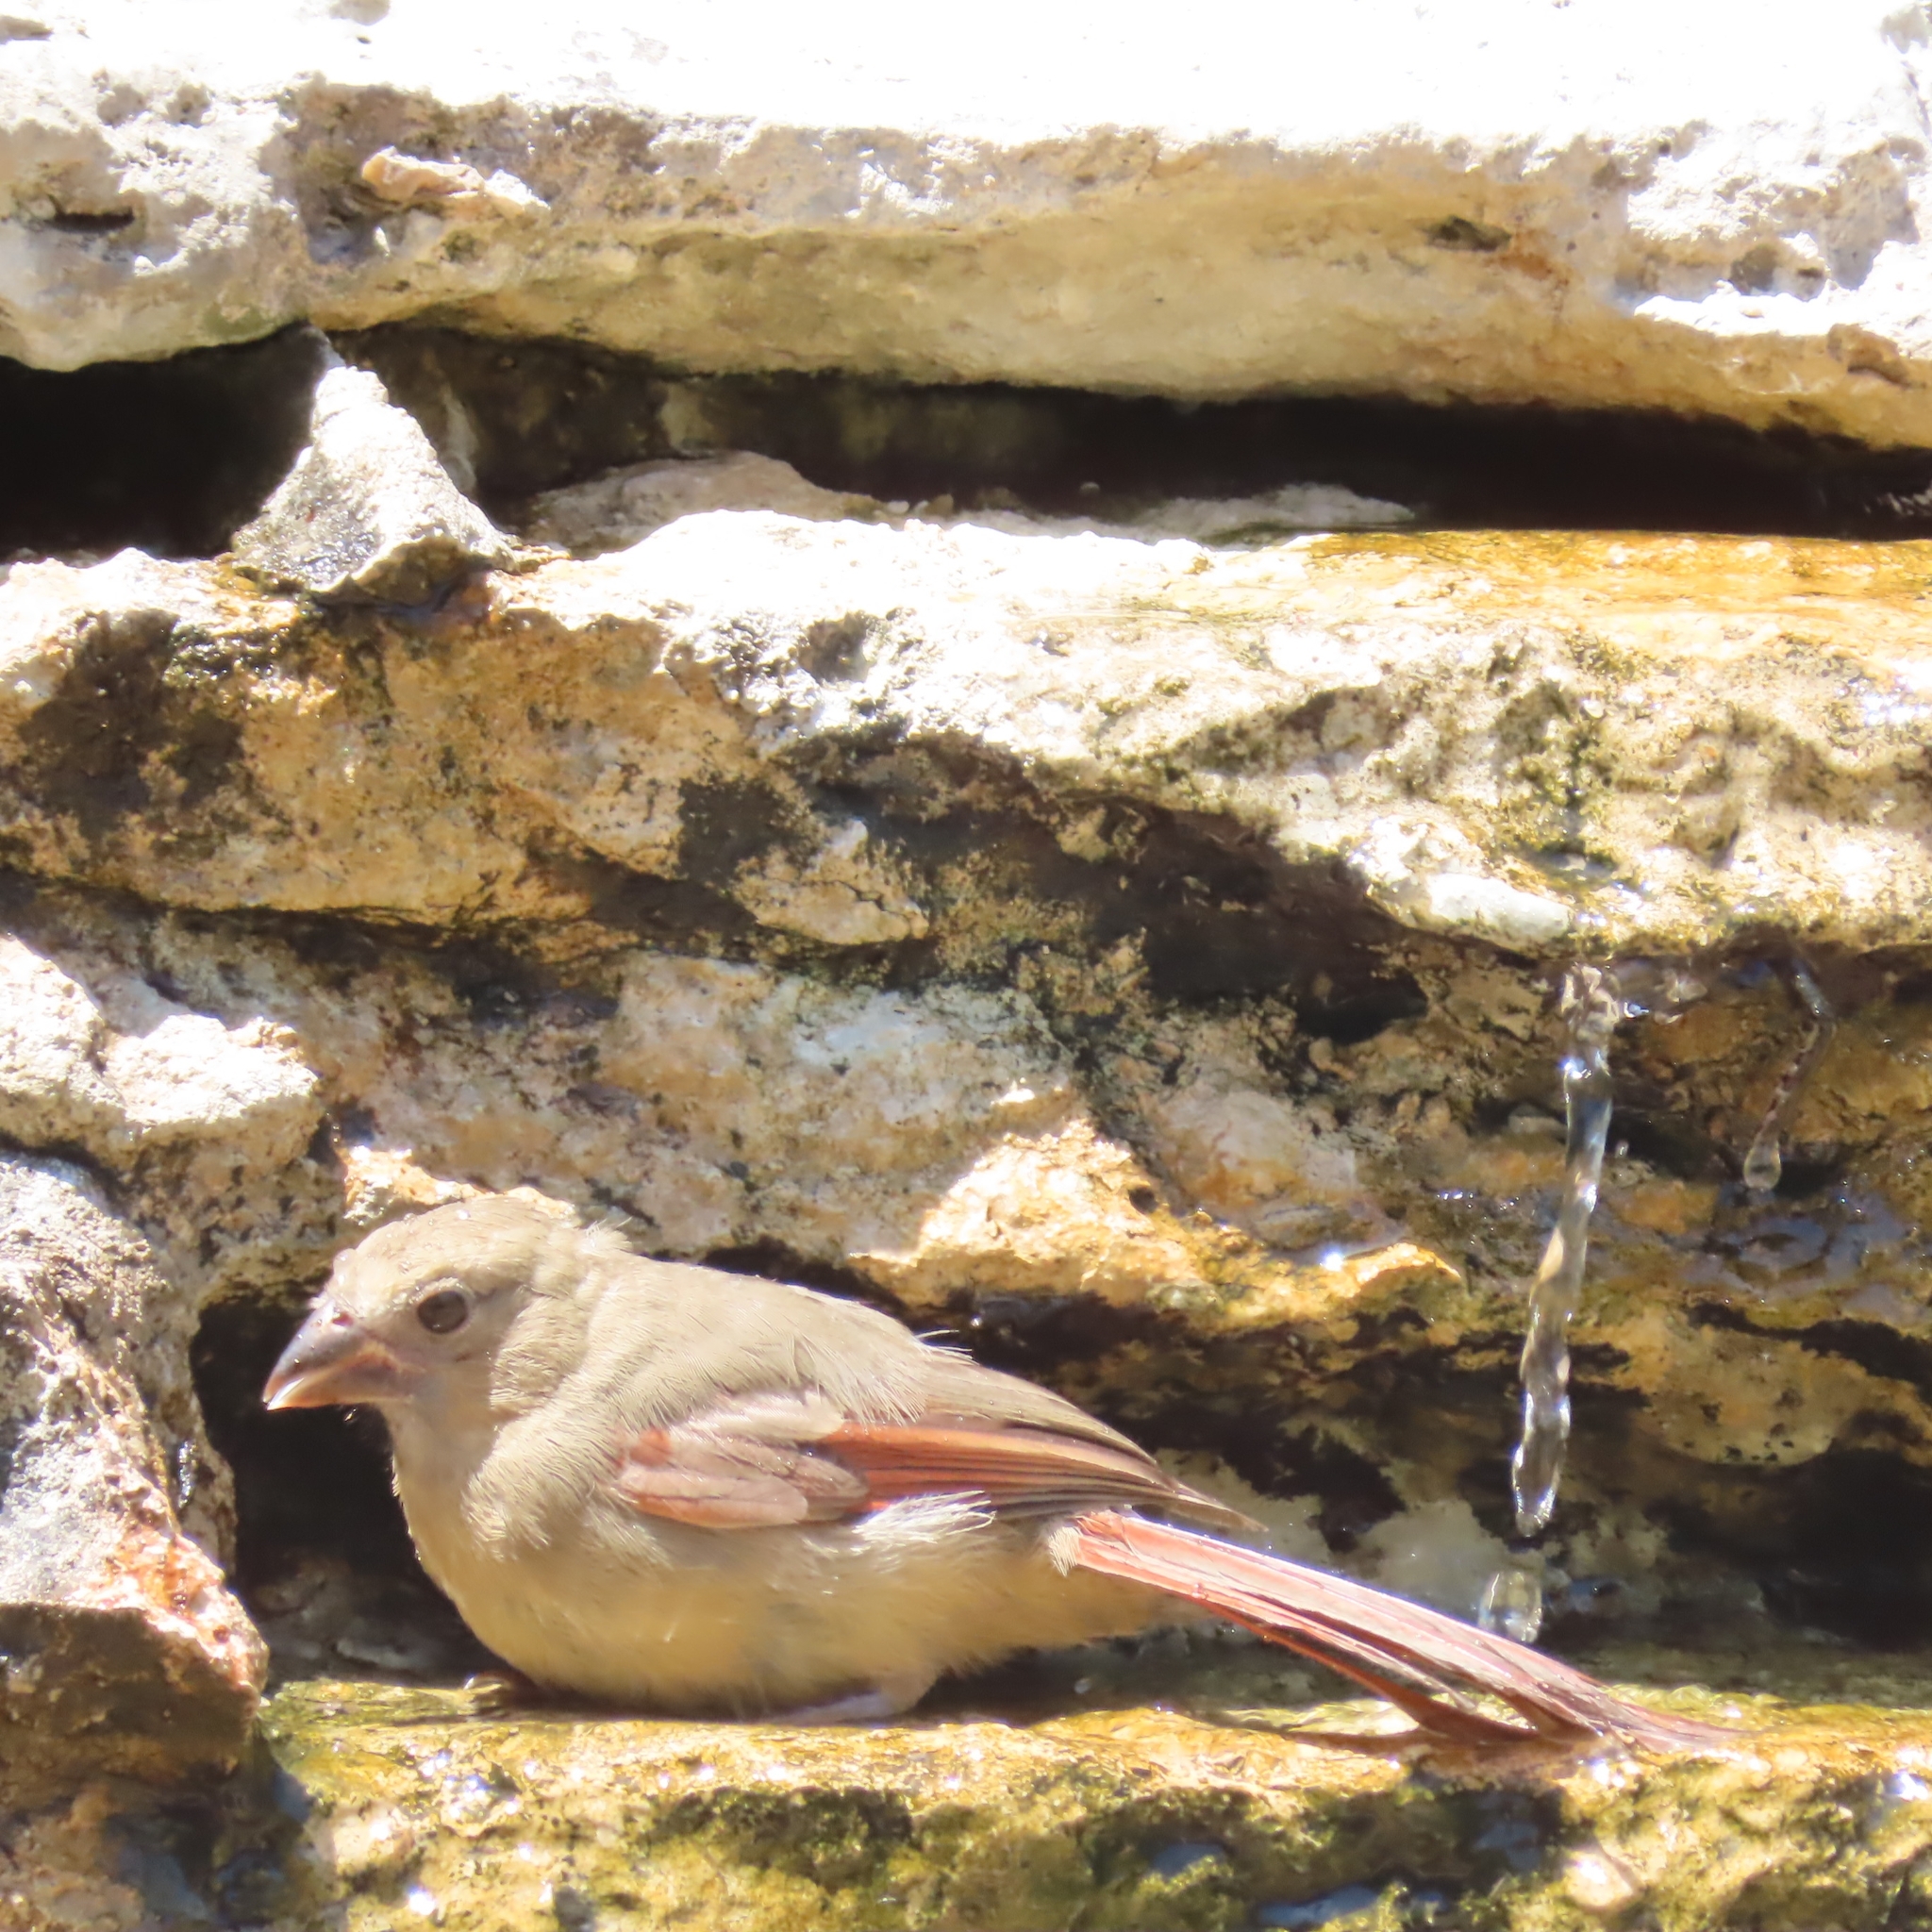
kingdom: Animalia
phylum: Chordata
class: Aves
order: Passeriformes
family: Cardinalidae
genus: Cardinalis
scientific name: Cardinalis cardinalis
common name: Northern cardinal
